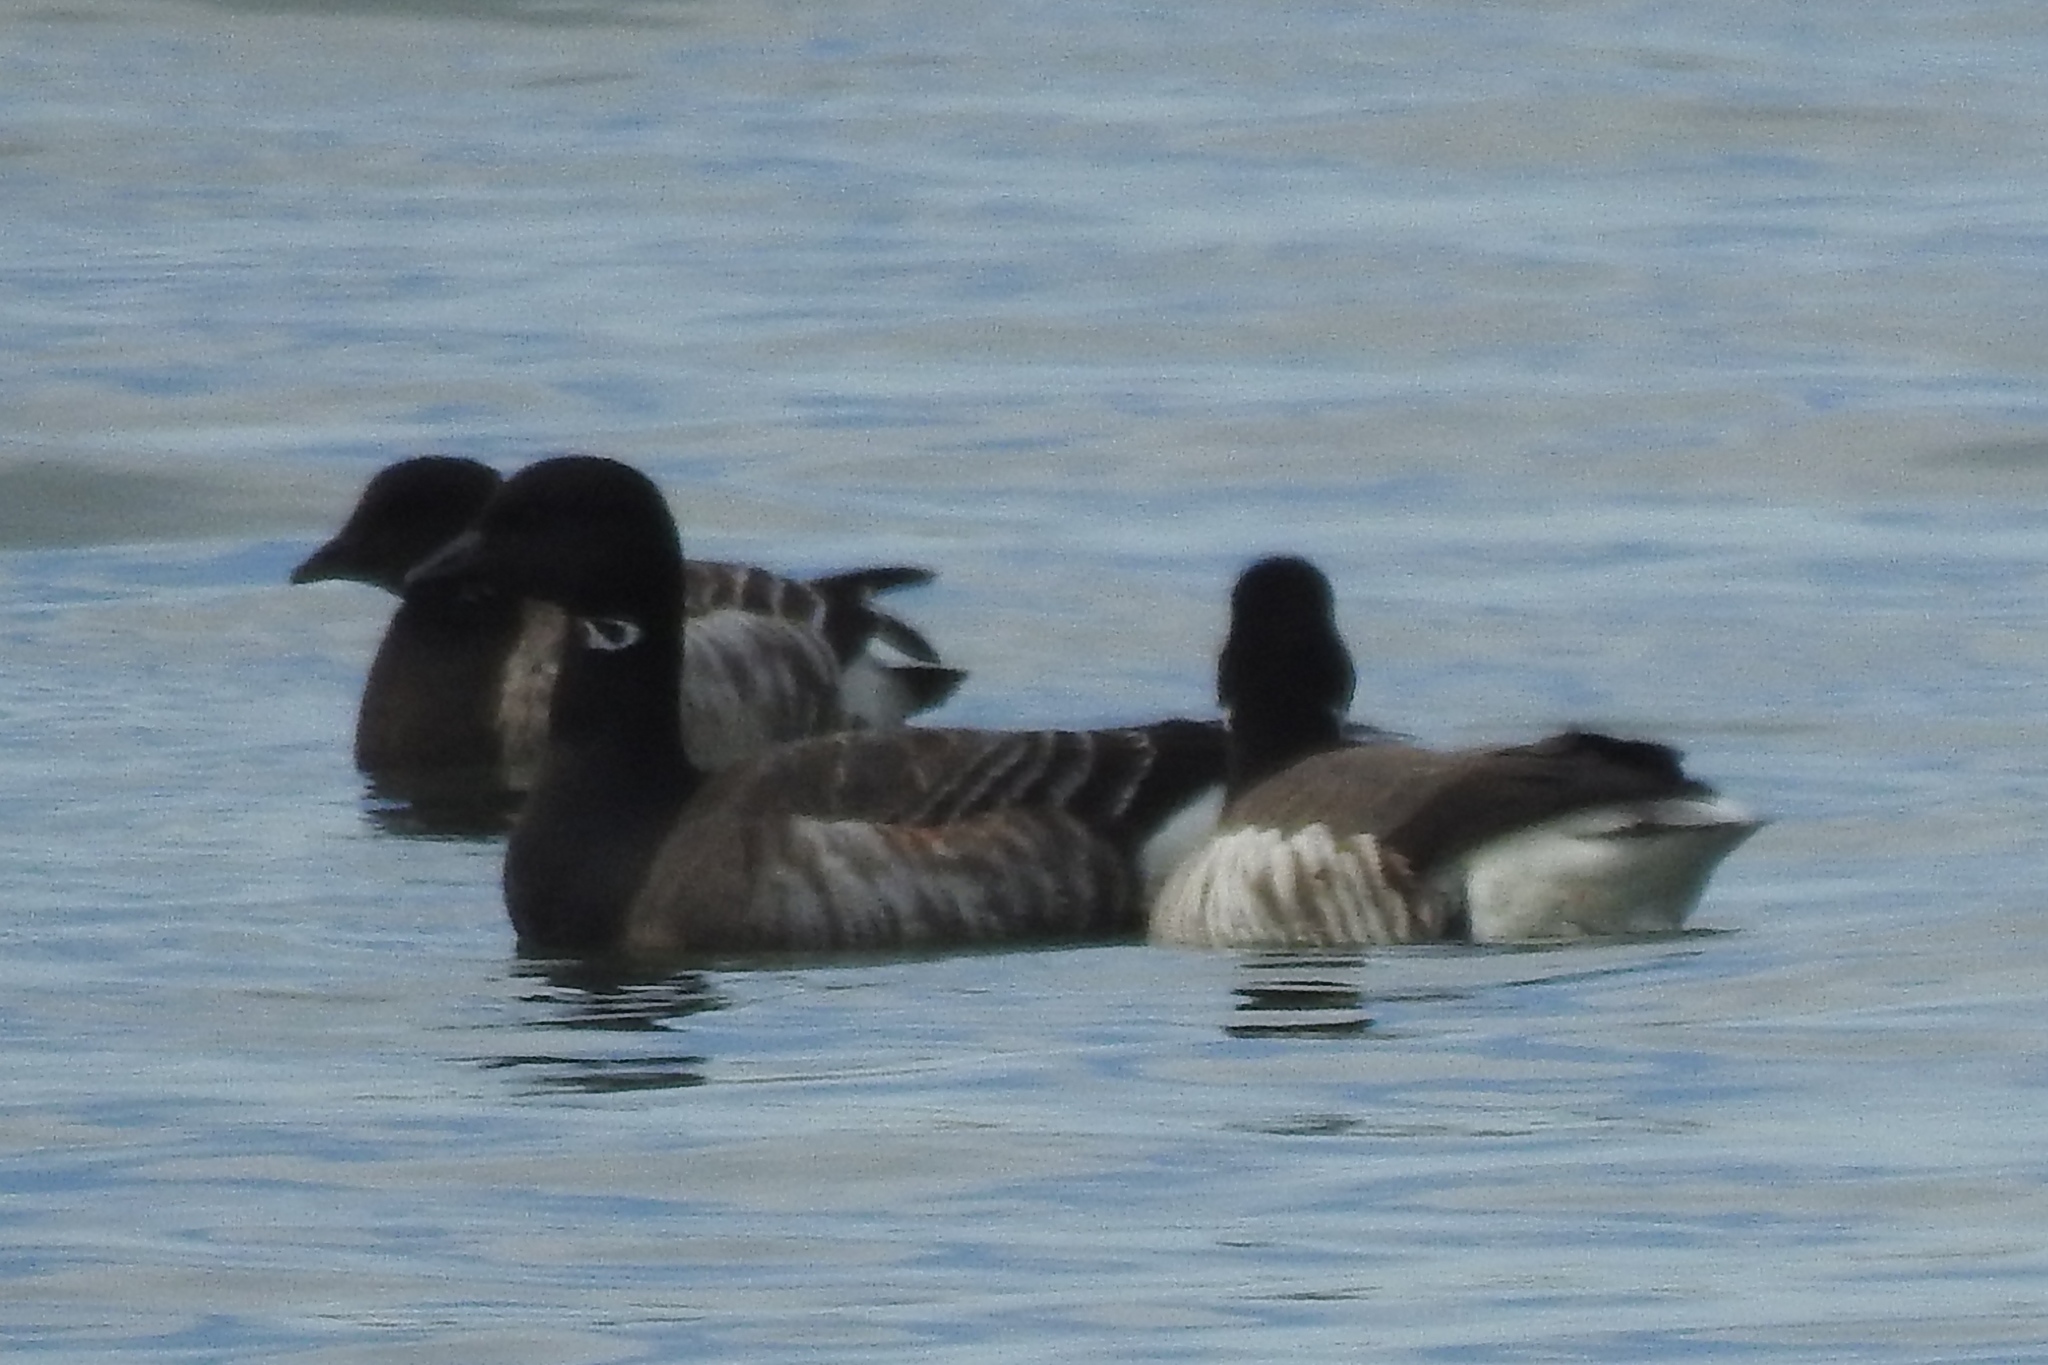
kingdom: Animalia
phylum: Chordata
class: Aves
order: Anseriformes
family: Anatidae
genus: Branta
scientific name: Branta bernicla
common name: Brant goose
